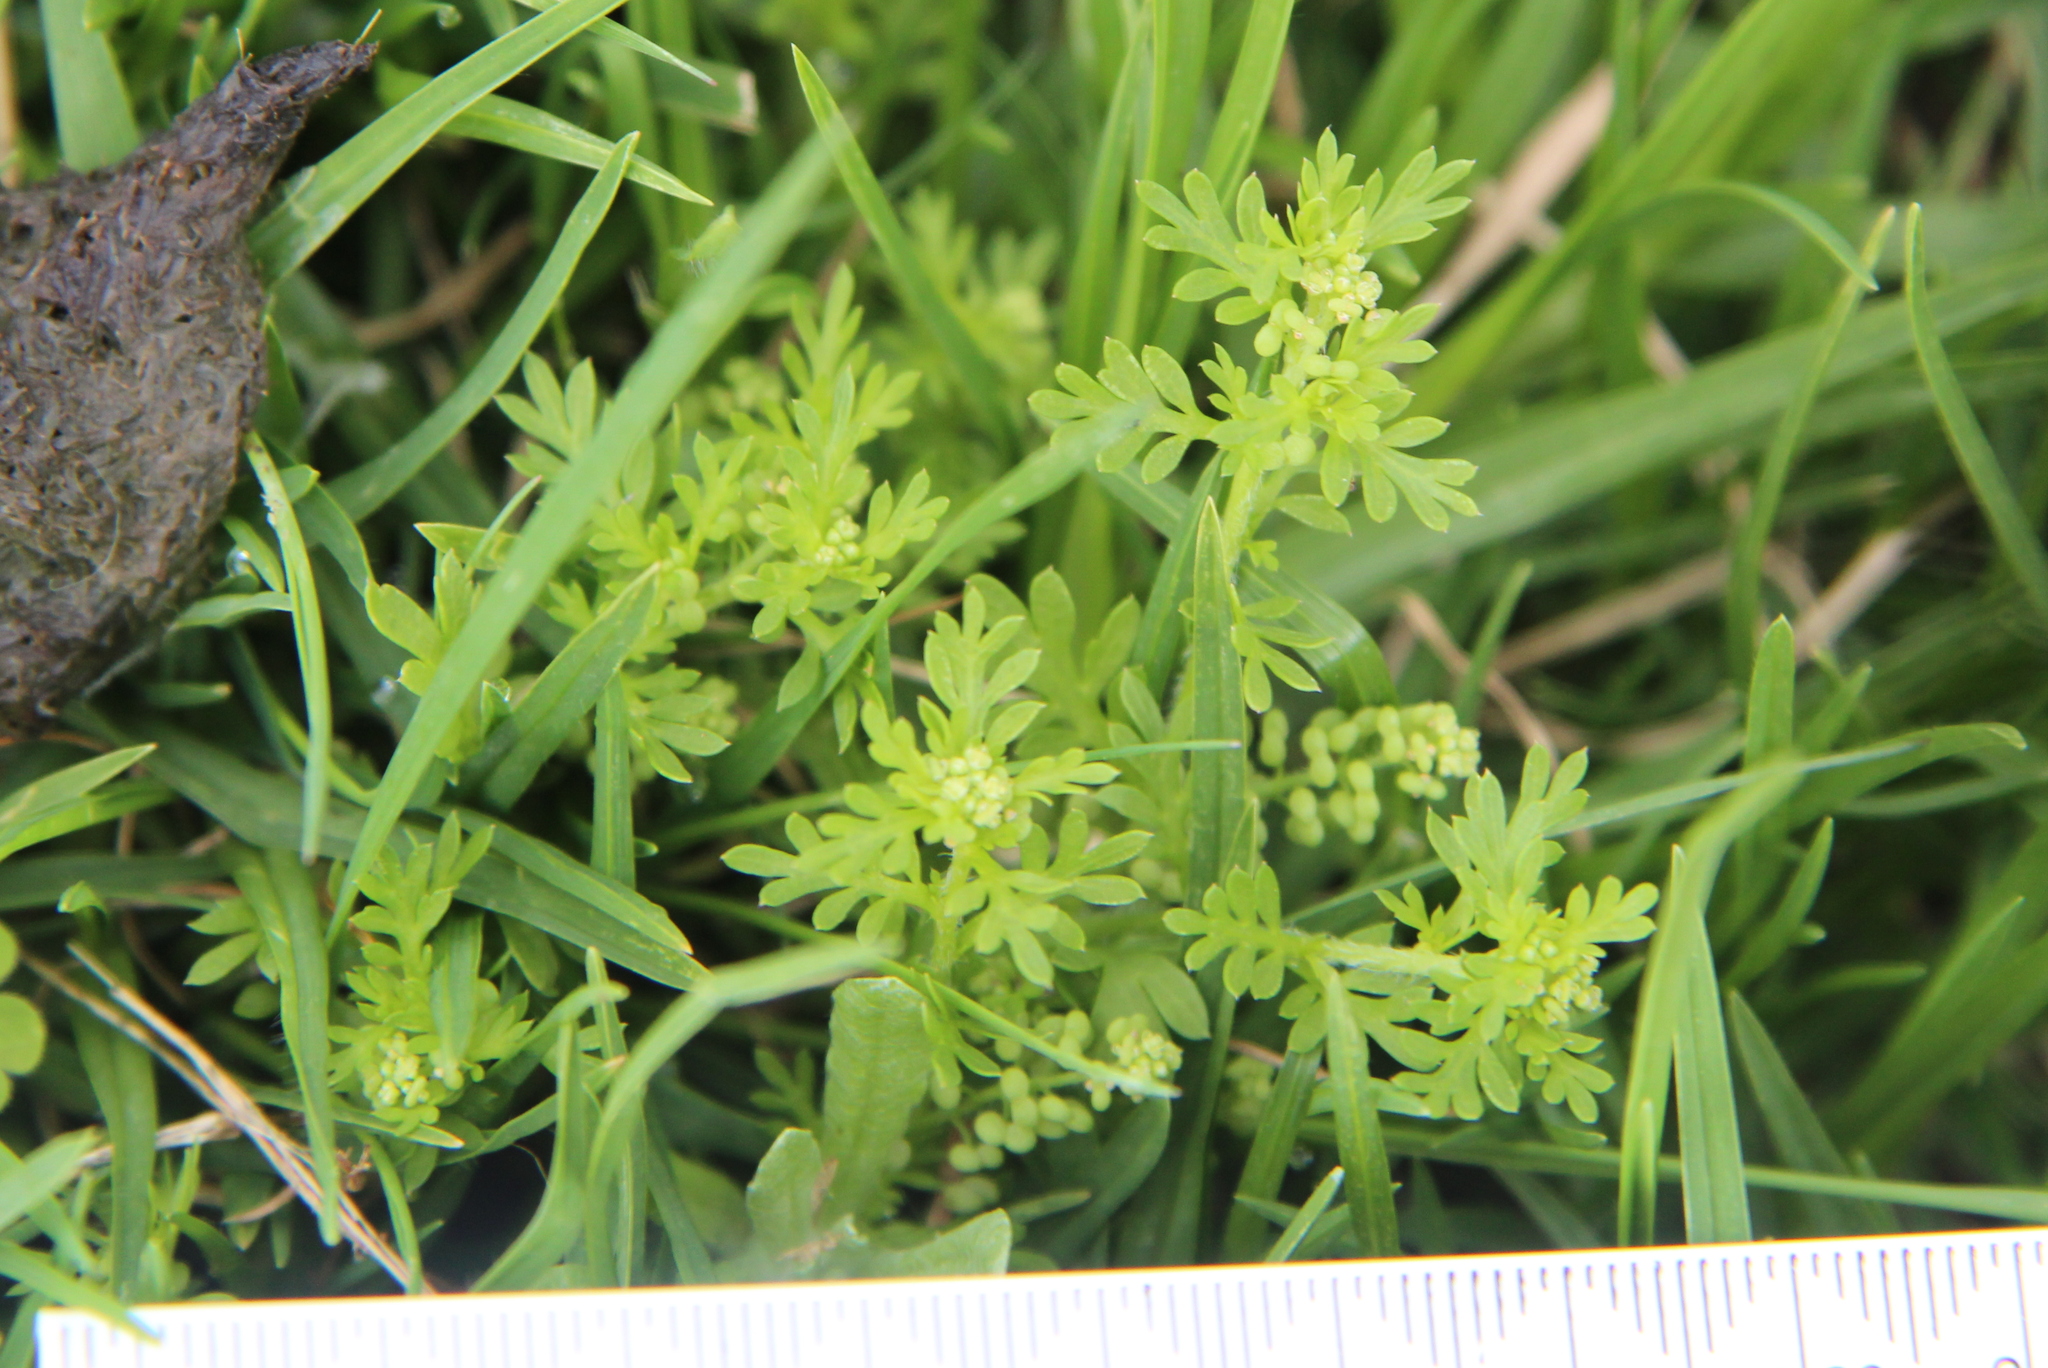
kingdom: Plantae
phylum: Tracheophyta
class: Magnoliopsida
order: Brassicales
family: Brassicaceae
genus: Lepidium
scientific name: Lepidium didymum
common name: Lesser swinecress
